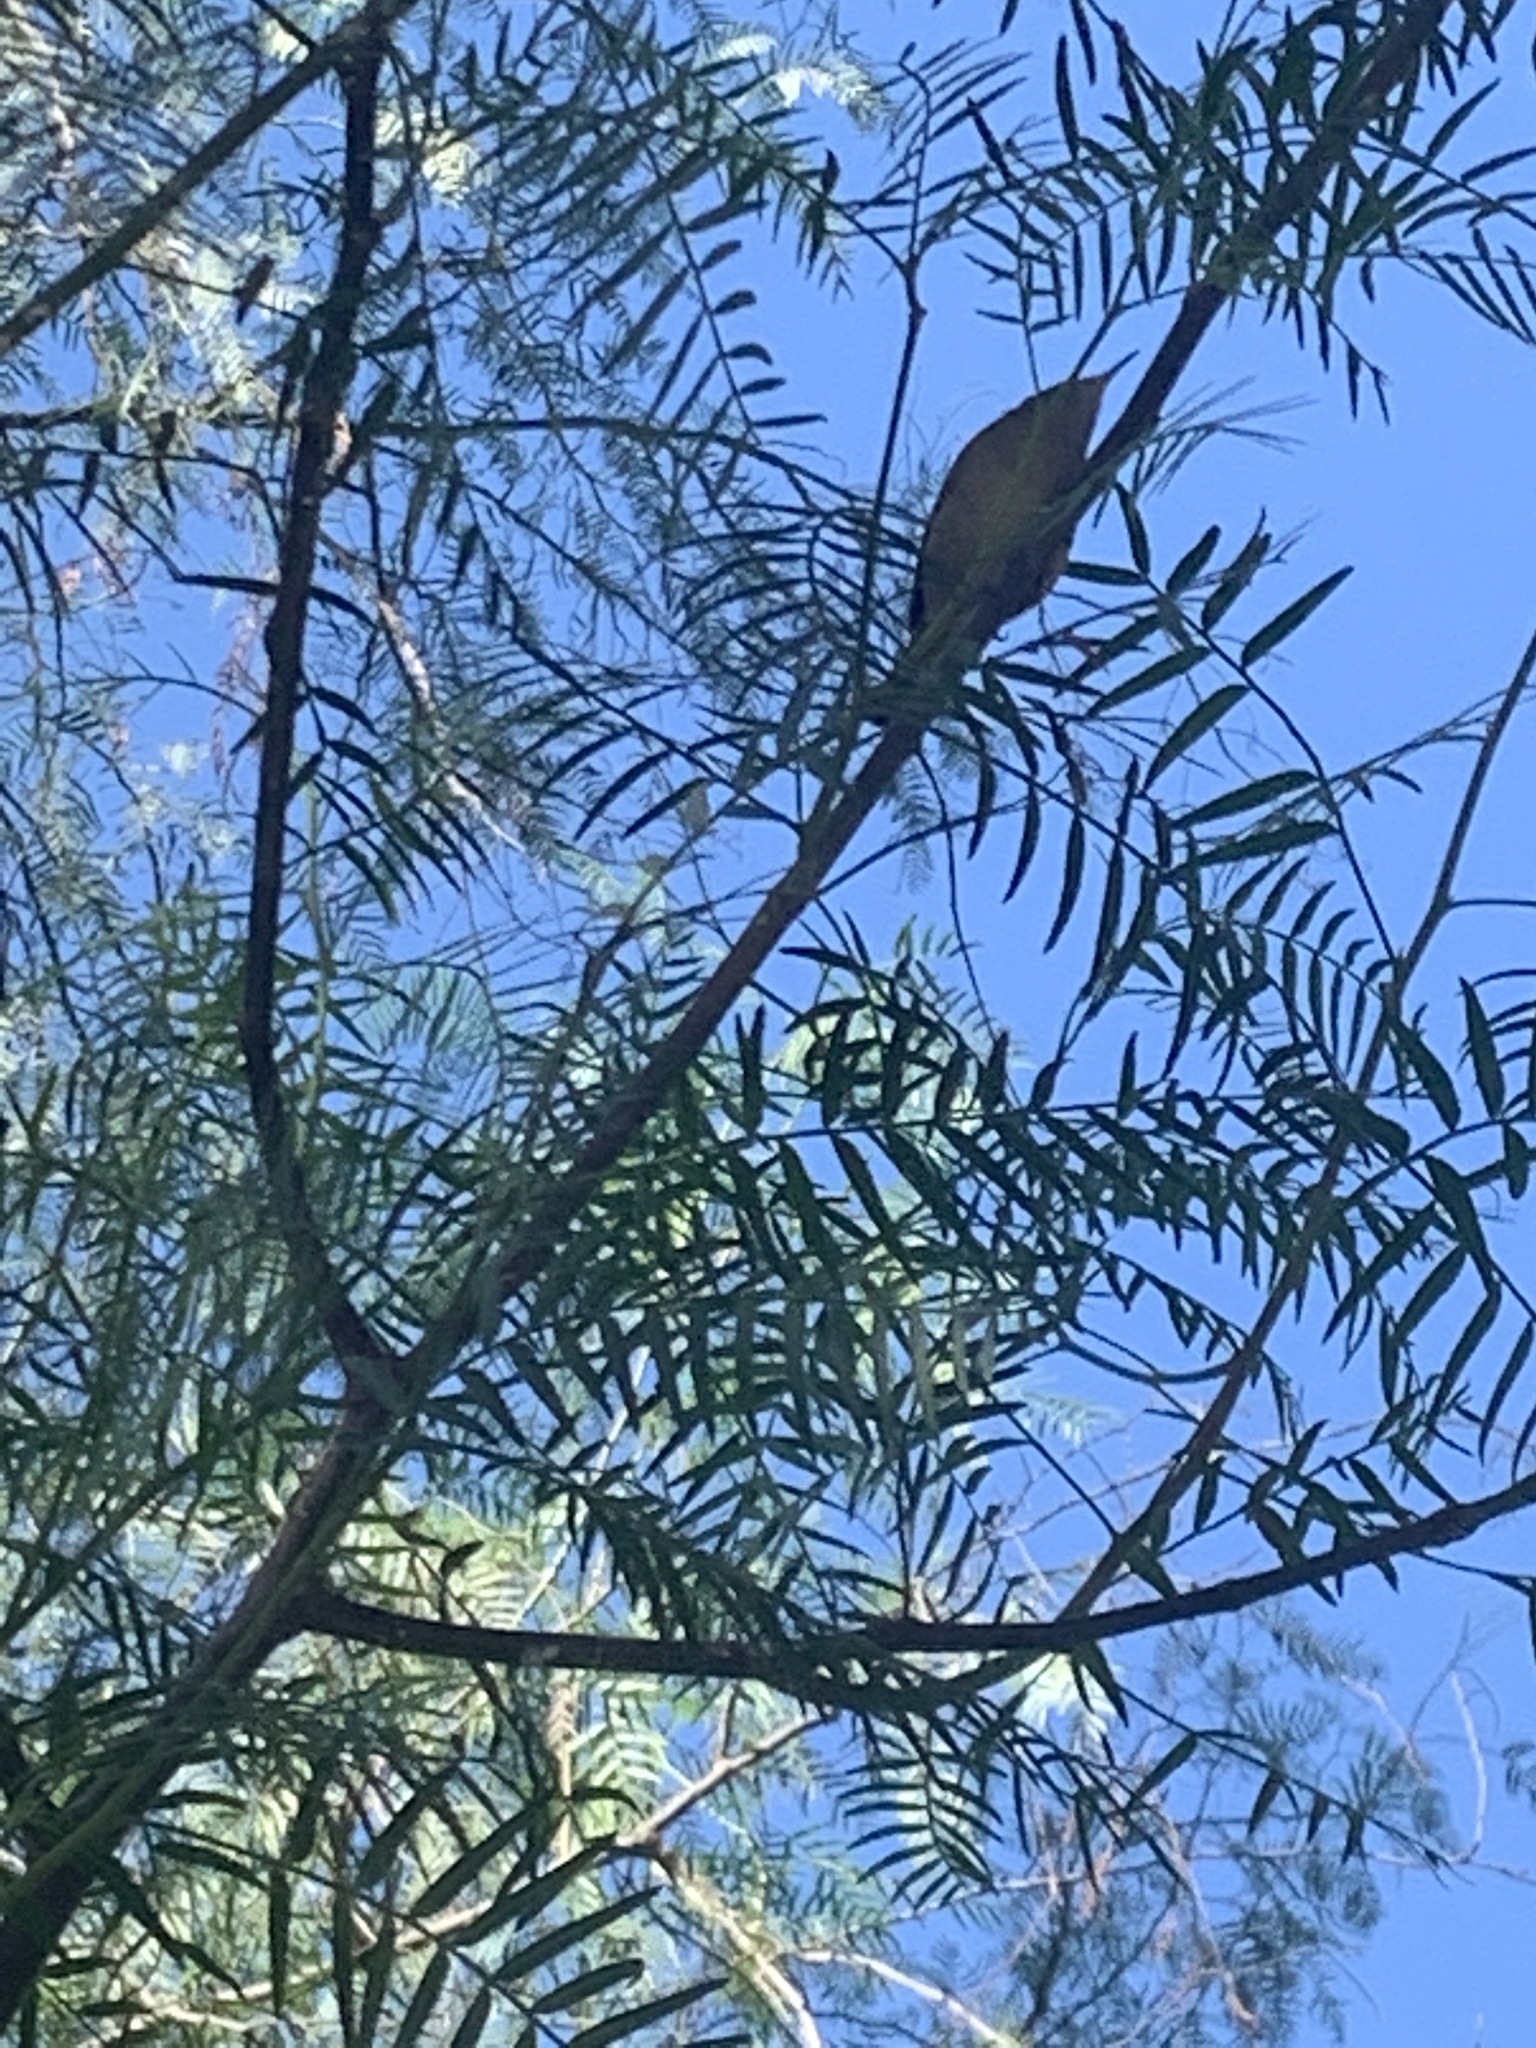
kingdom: Animalia
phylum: Chordata
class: Aves
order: Passeriformes
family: Troglodytidae
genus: Troglodytes
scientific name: Troglodytes aedon
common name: House wren
